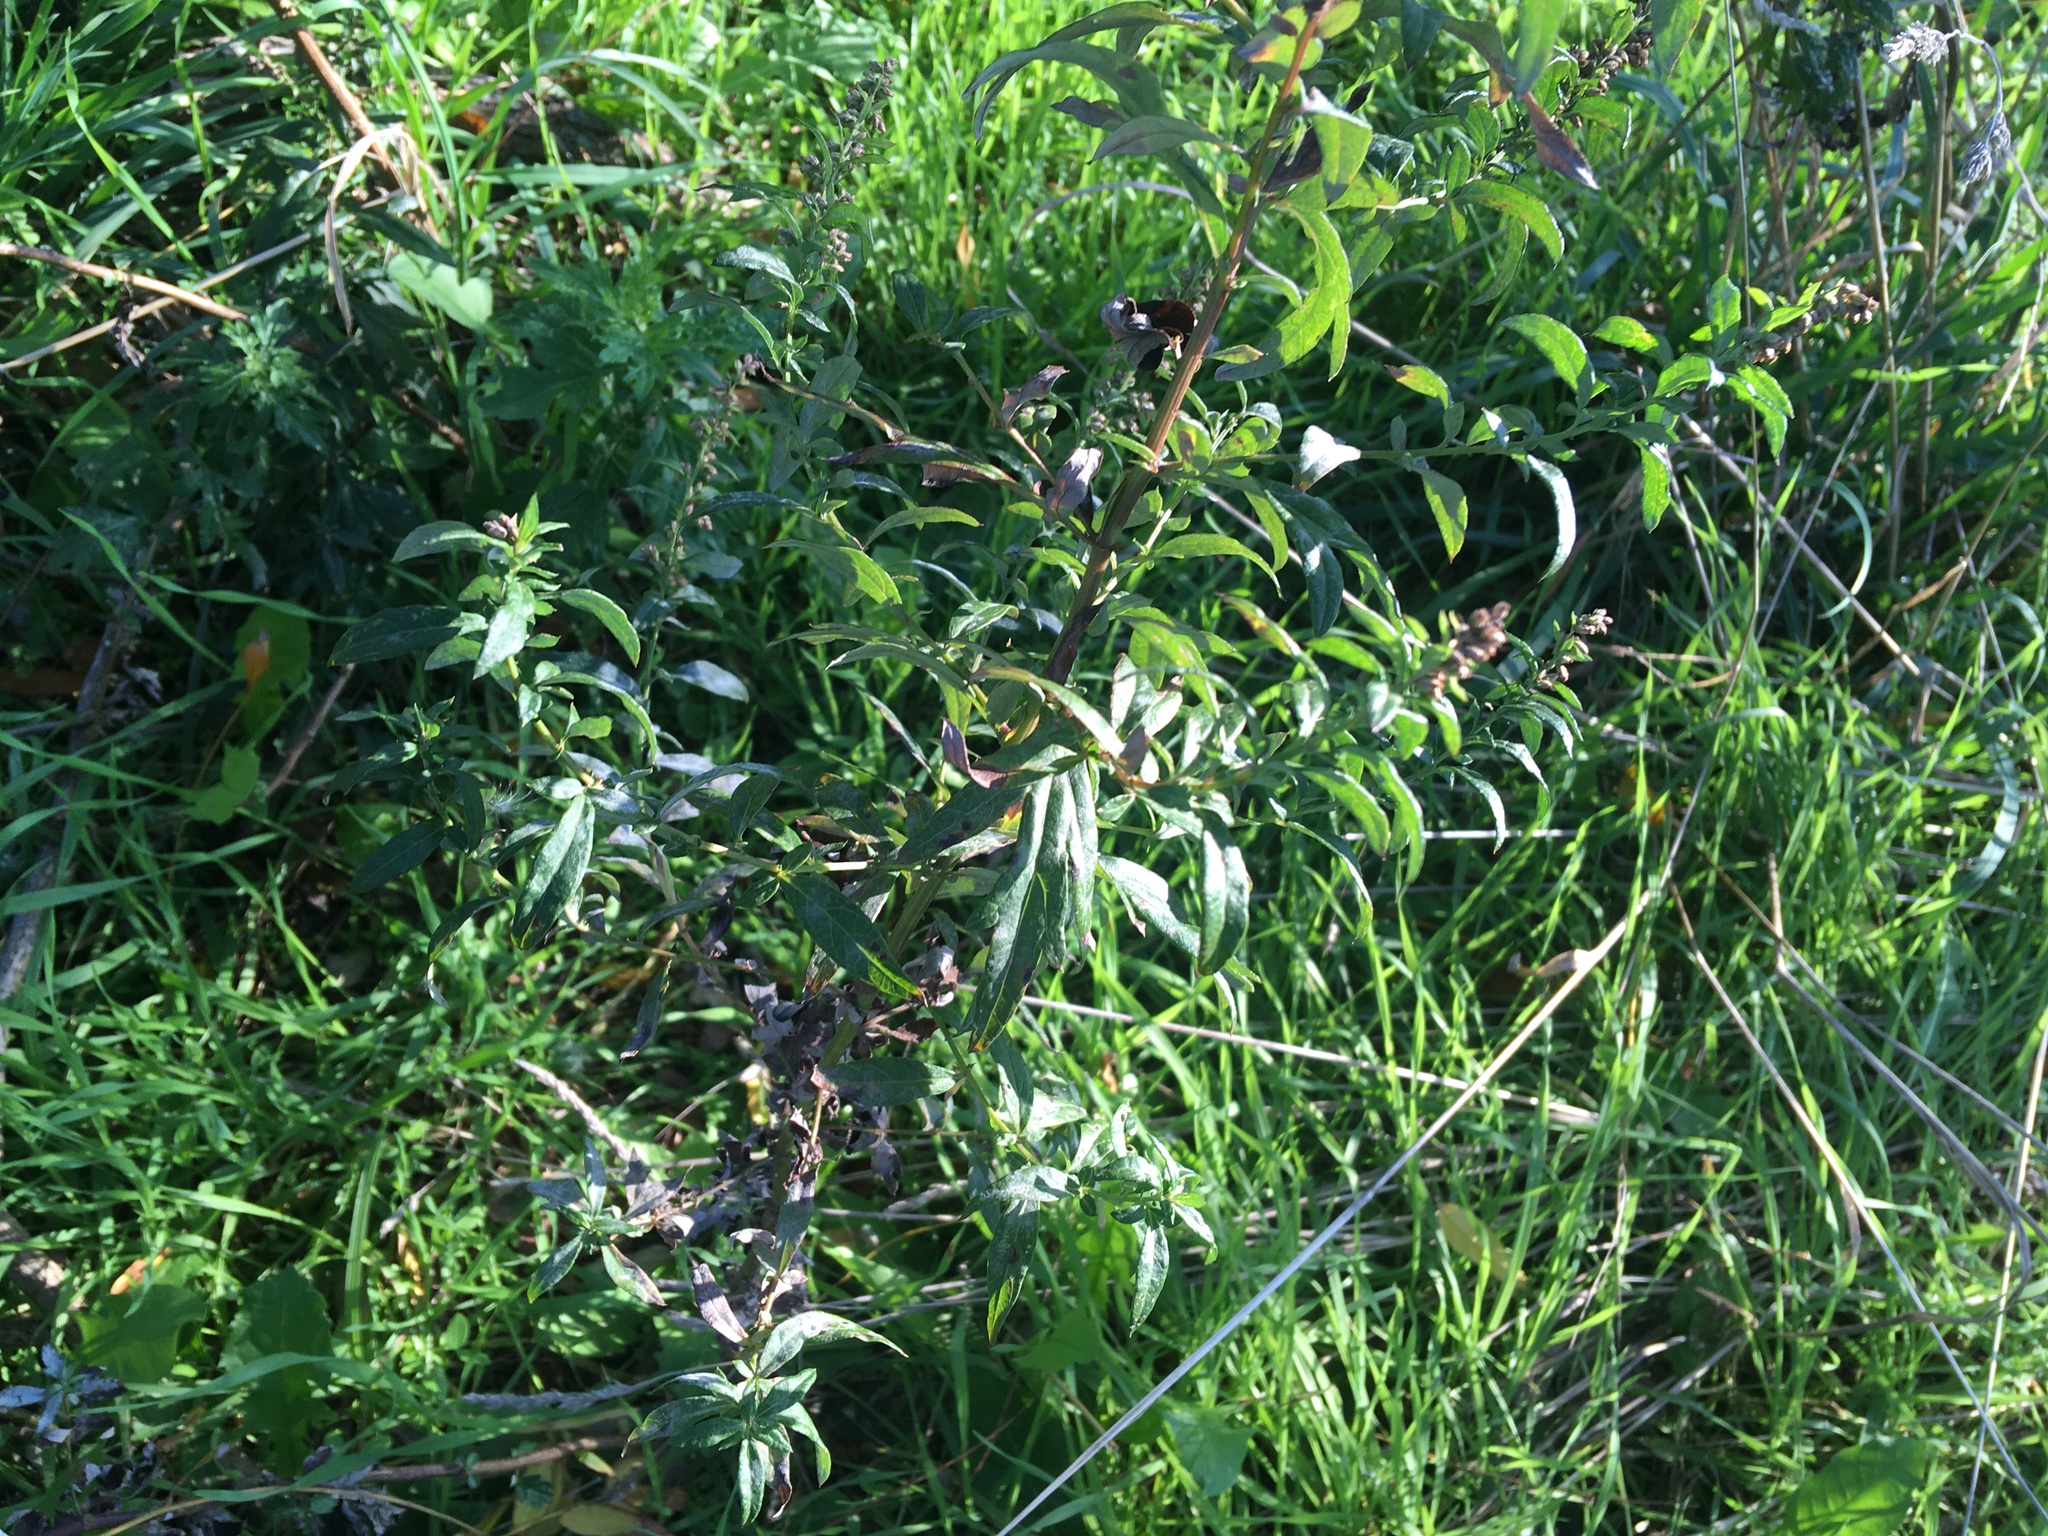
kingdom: Plantae
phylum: Tracheophyta
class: Magnoliopsida
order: Asterales
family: Asteraceae
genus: Artemisia
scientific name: Artemisia vulgaris
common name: Mugwort
